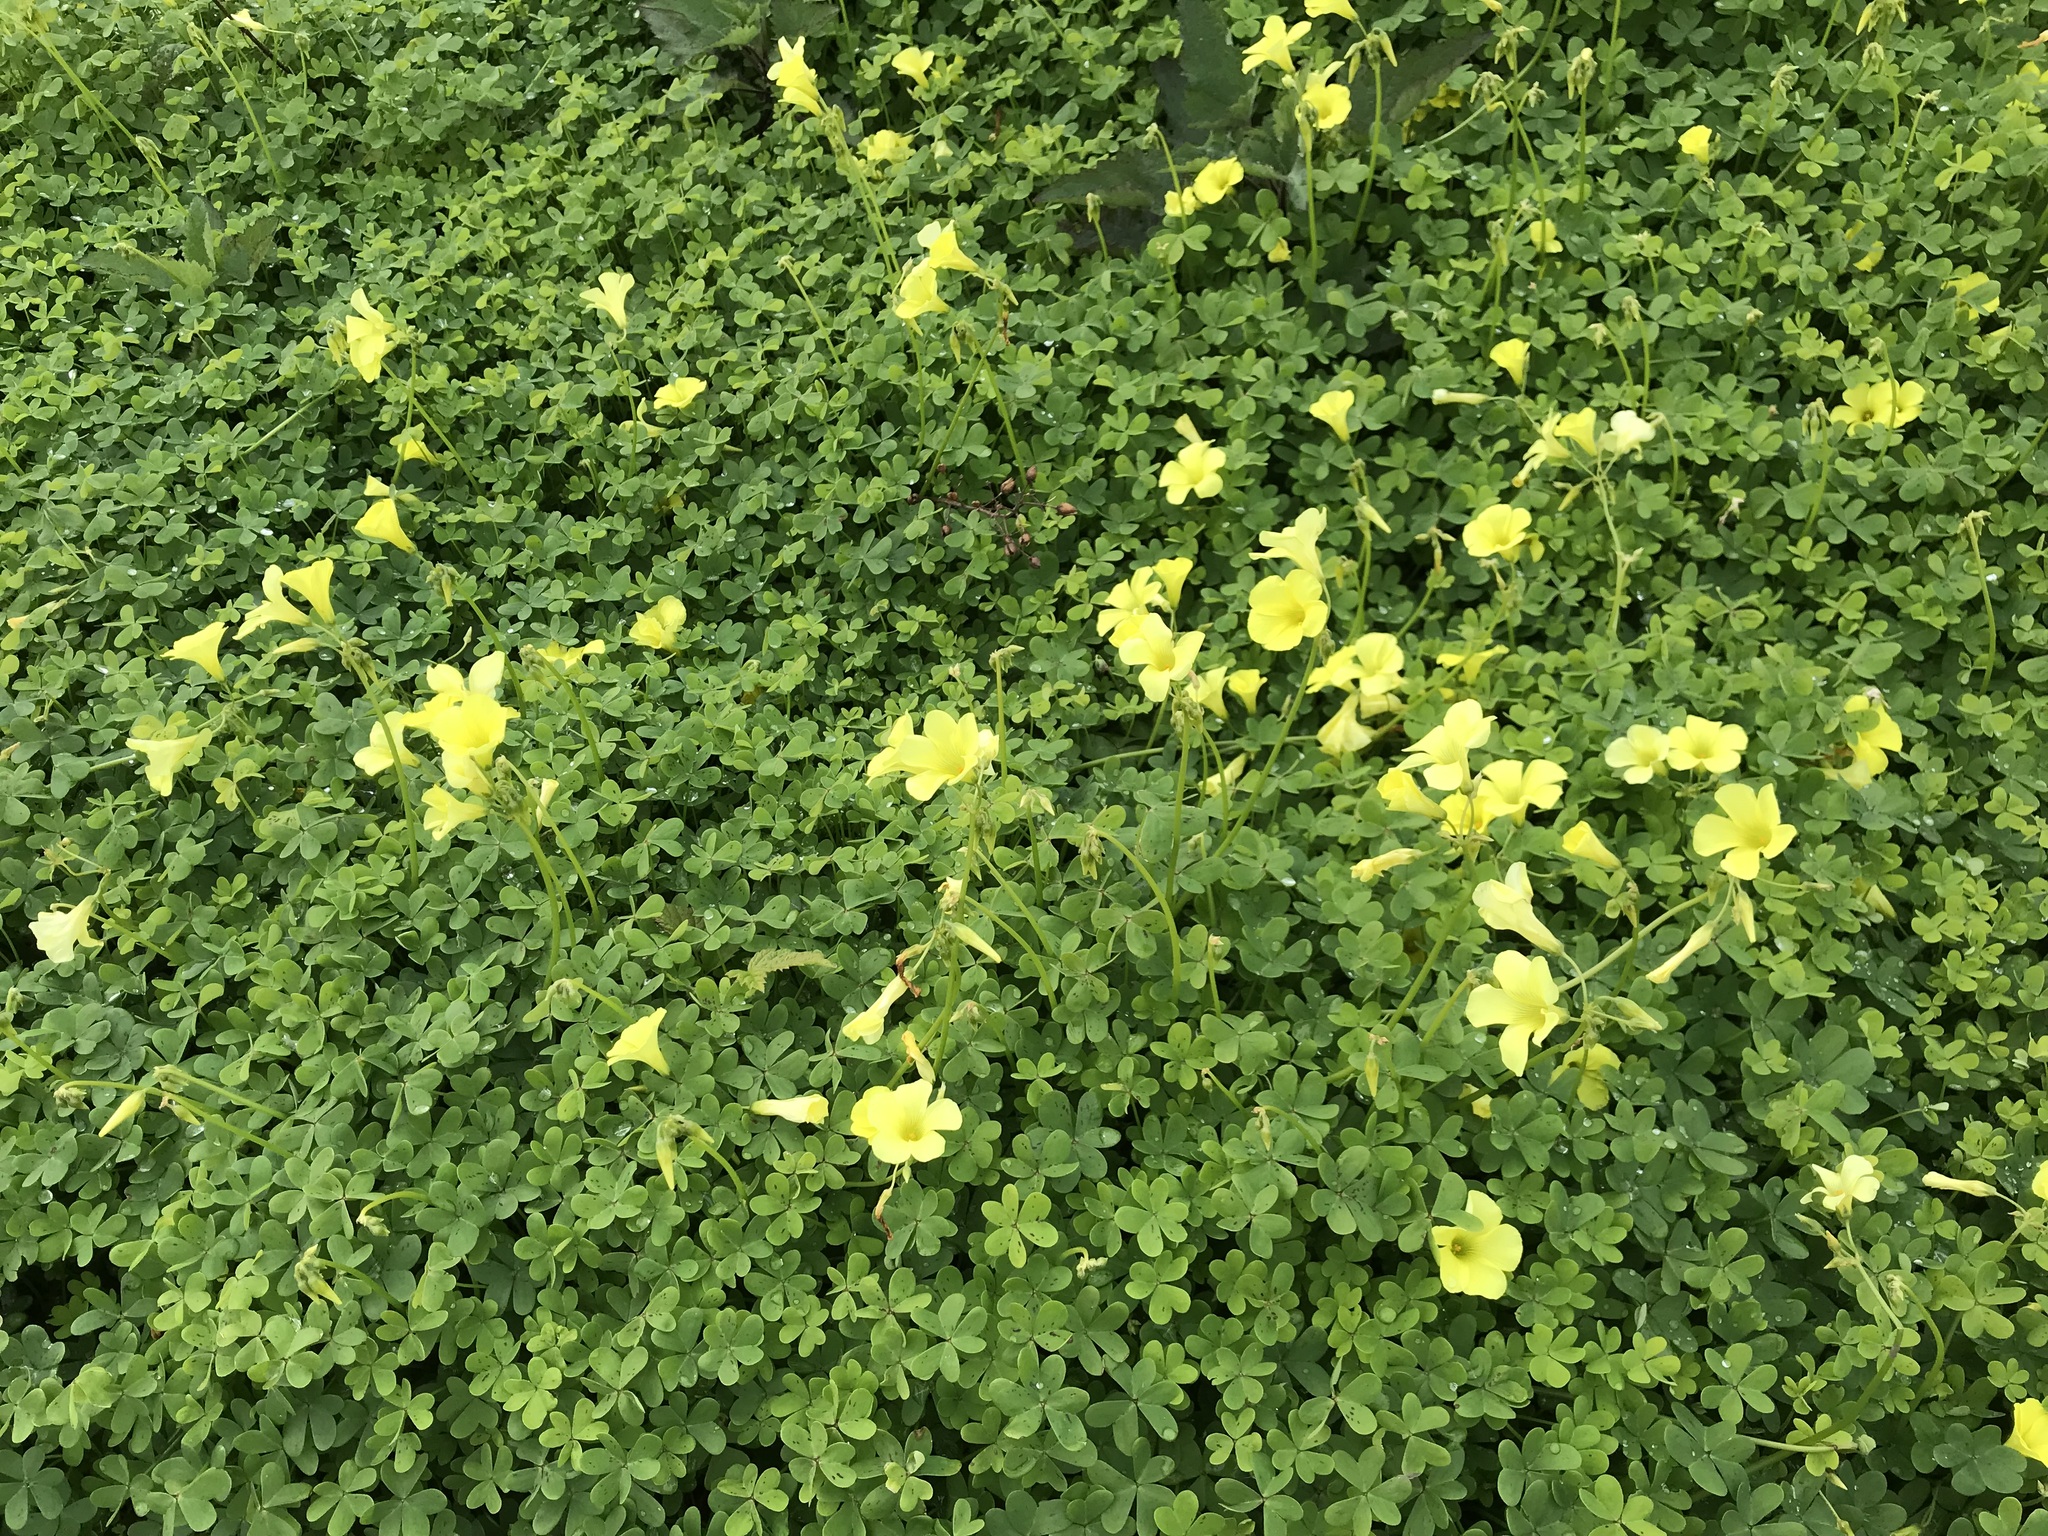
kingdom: Plantae
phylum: Tracheophyta
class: Magnoliopsida
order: Oxalidales
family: Oxalidaceae
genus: Oxalis
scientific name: Oxalis pes-caprae
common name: Bermuda-buttercup
